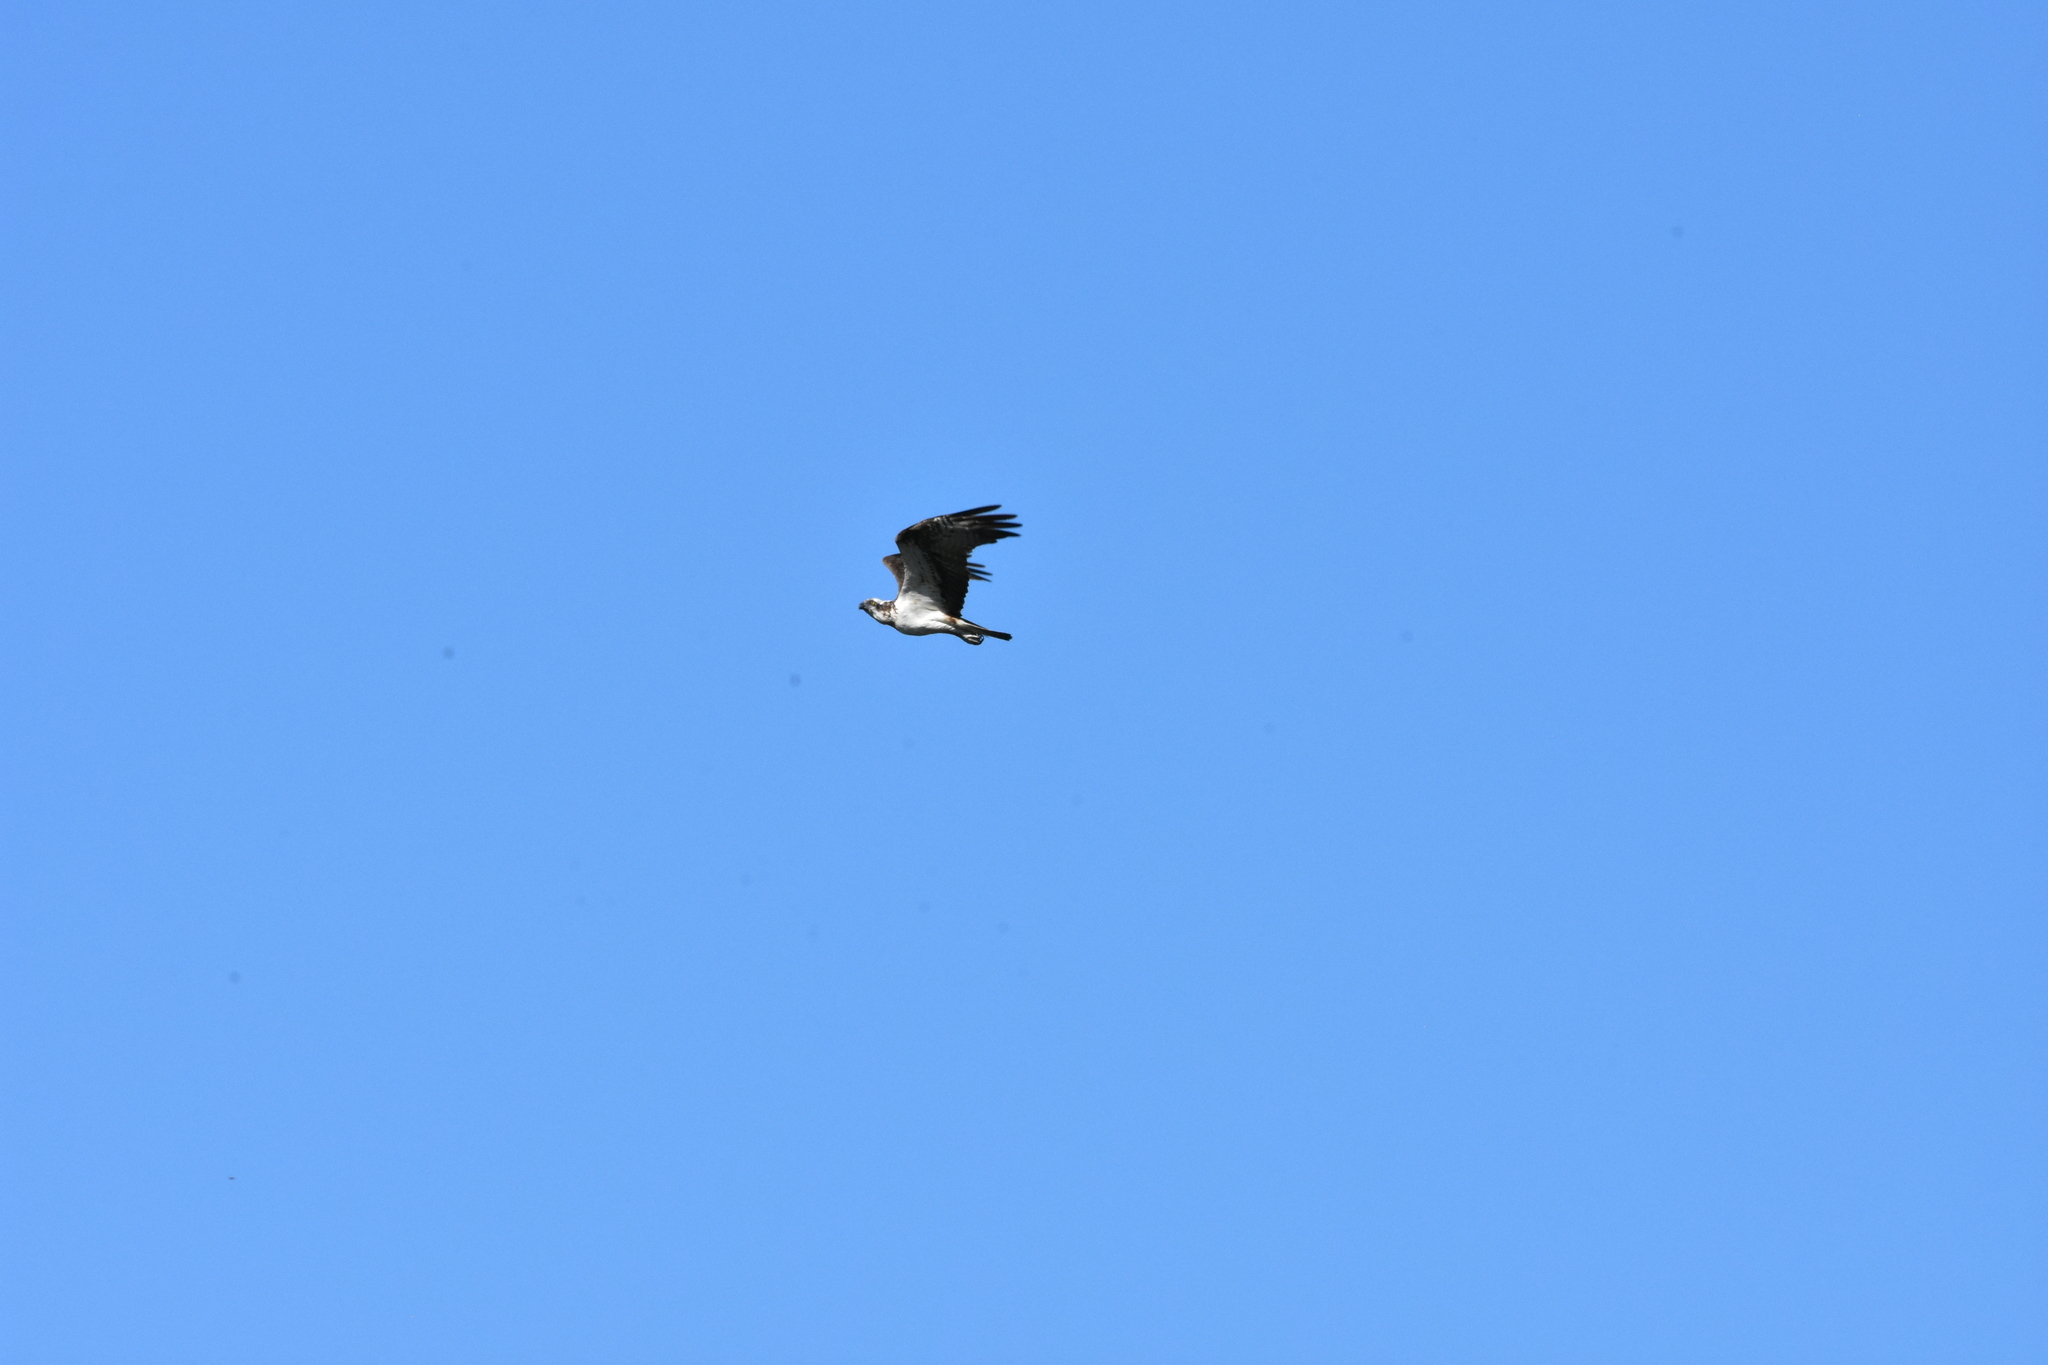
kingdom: Animalia
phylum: Chordata
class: Aves
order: Accipitriformes
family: Pandionidae
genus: Pandion
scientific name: Pandion haliaetus
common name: Osprey
